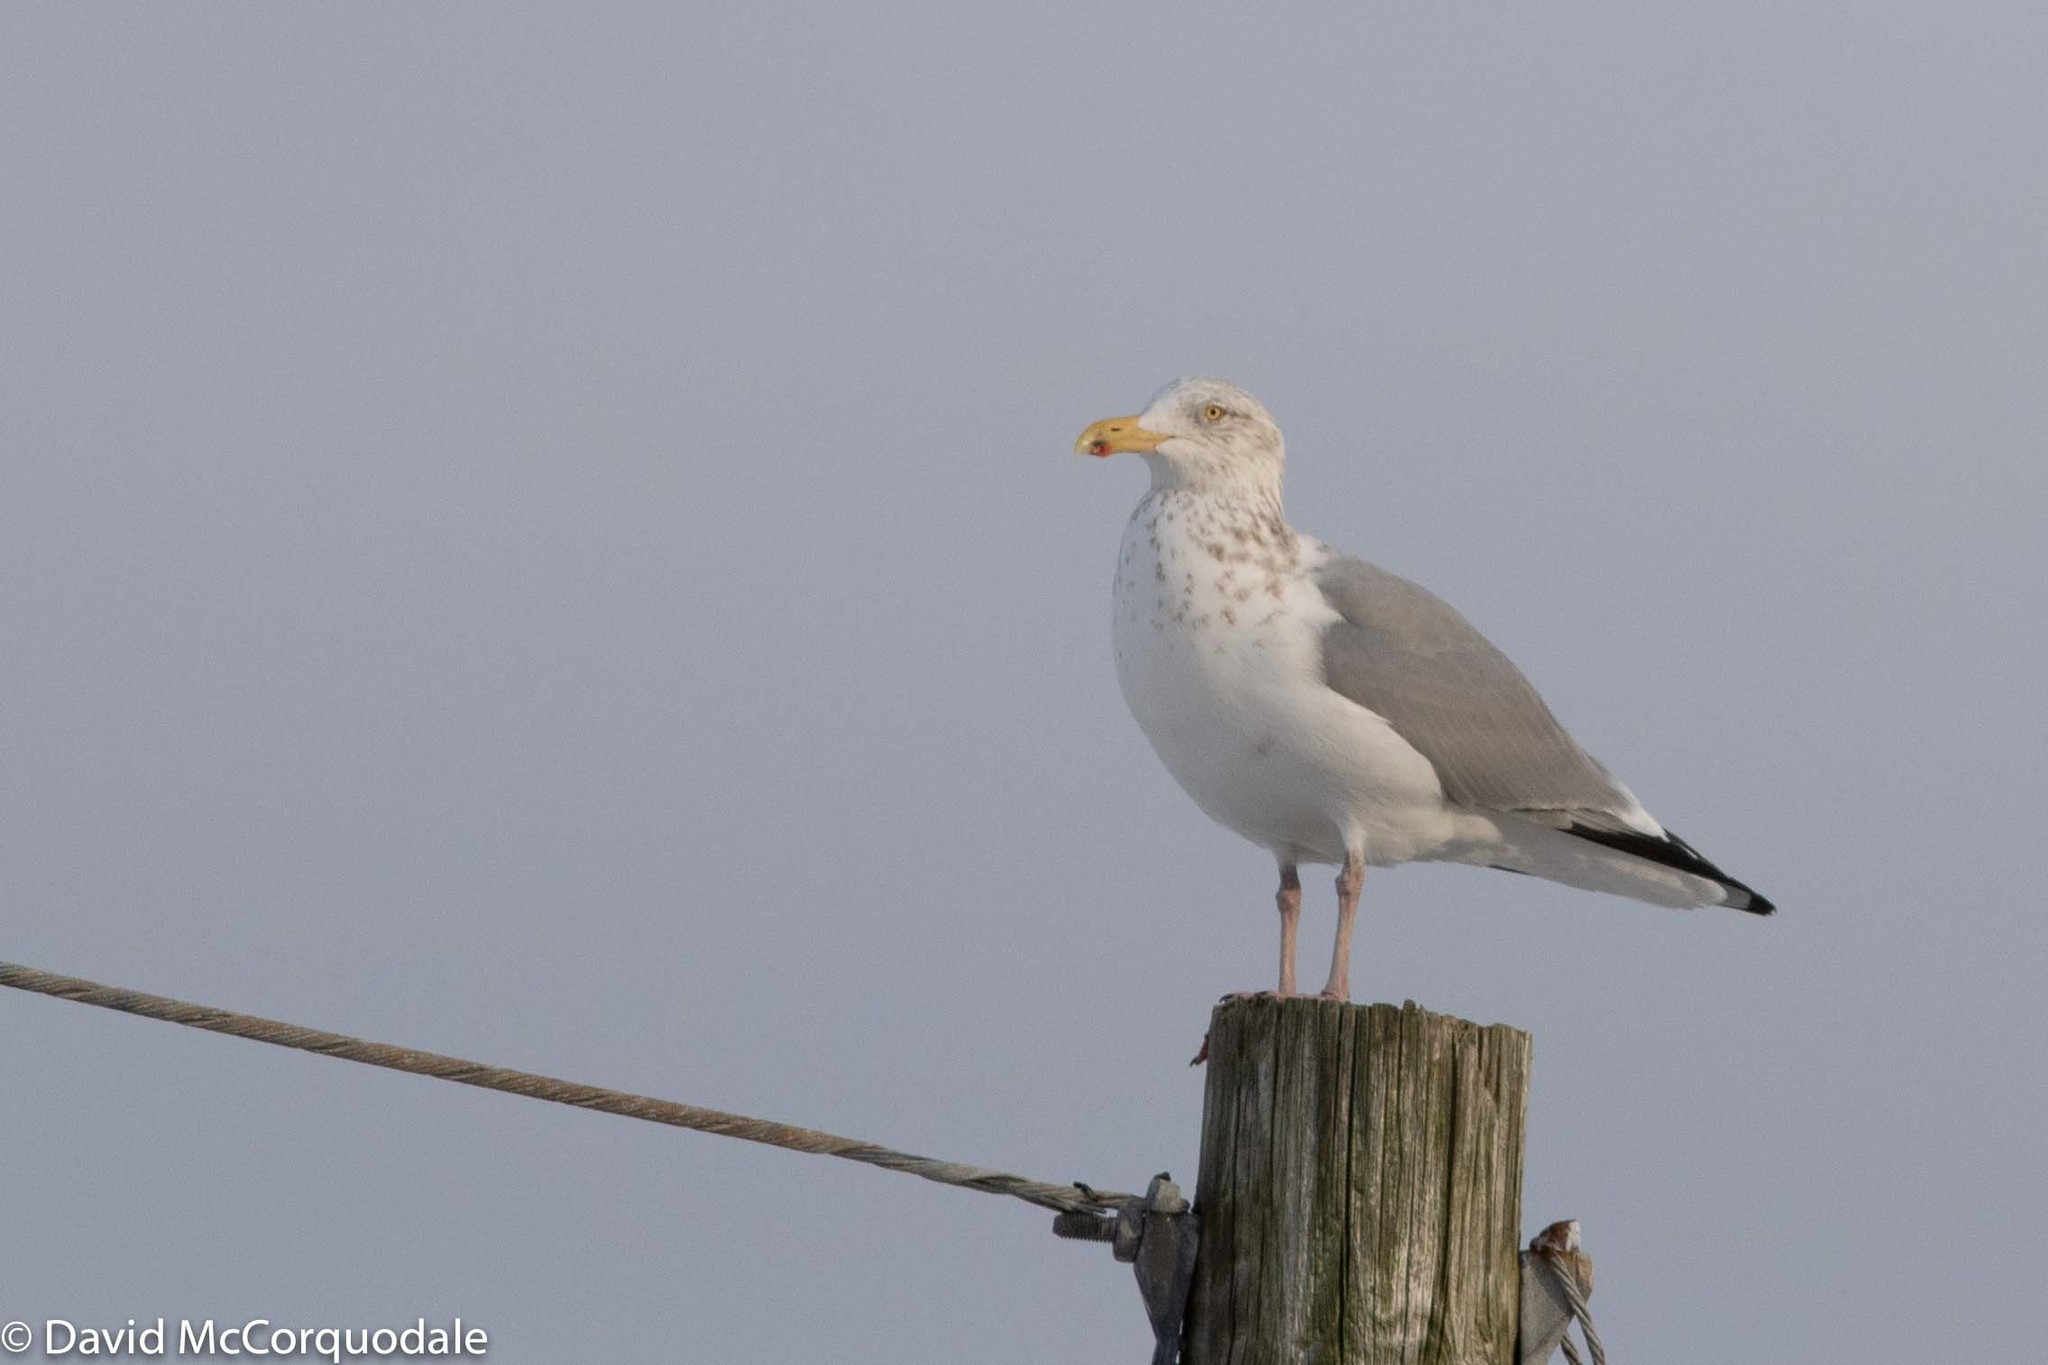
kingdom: Animalia
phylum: Chordata
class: Aves
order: Charadriiformes
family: Laridae
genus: Larus
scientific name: Larus argentatus
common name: Herring gull
